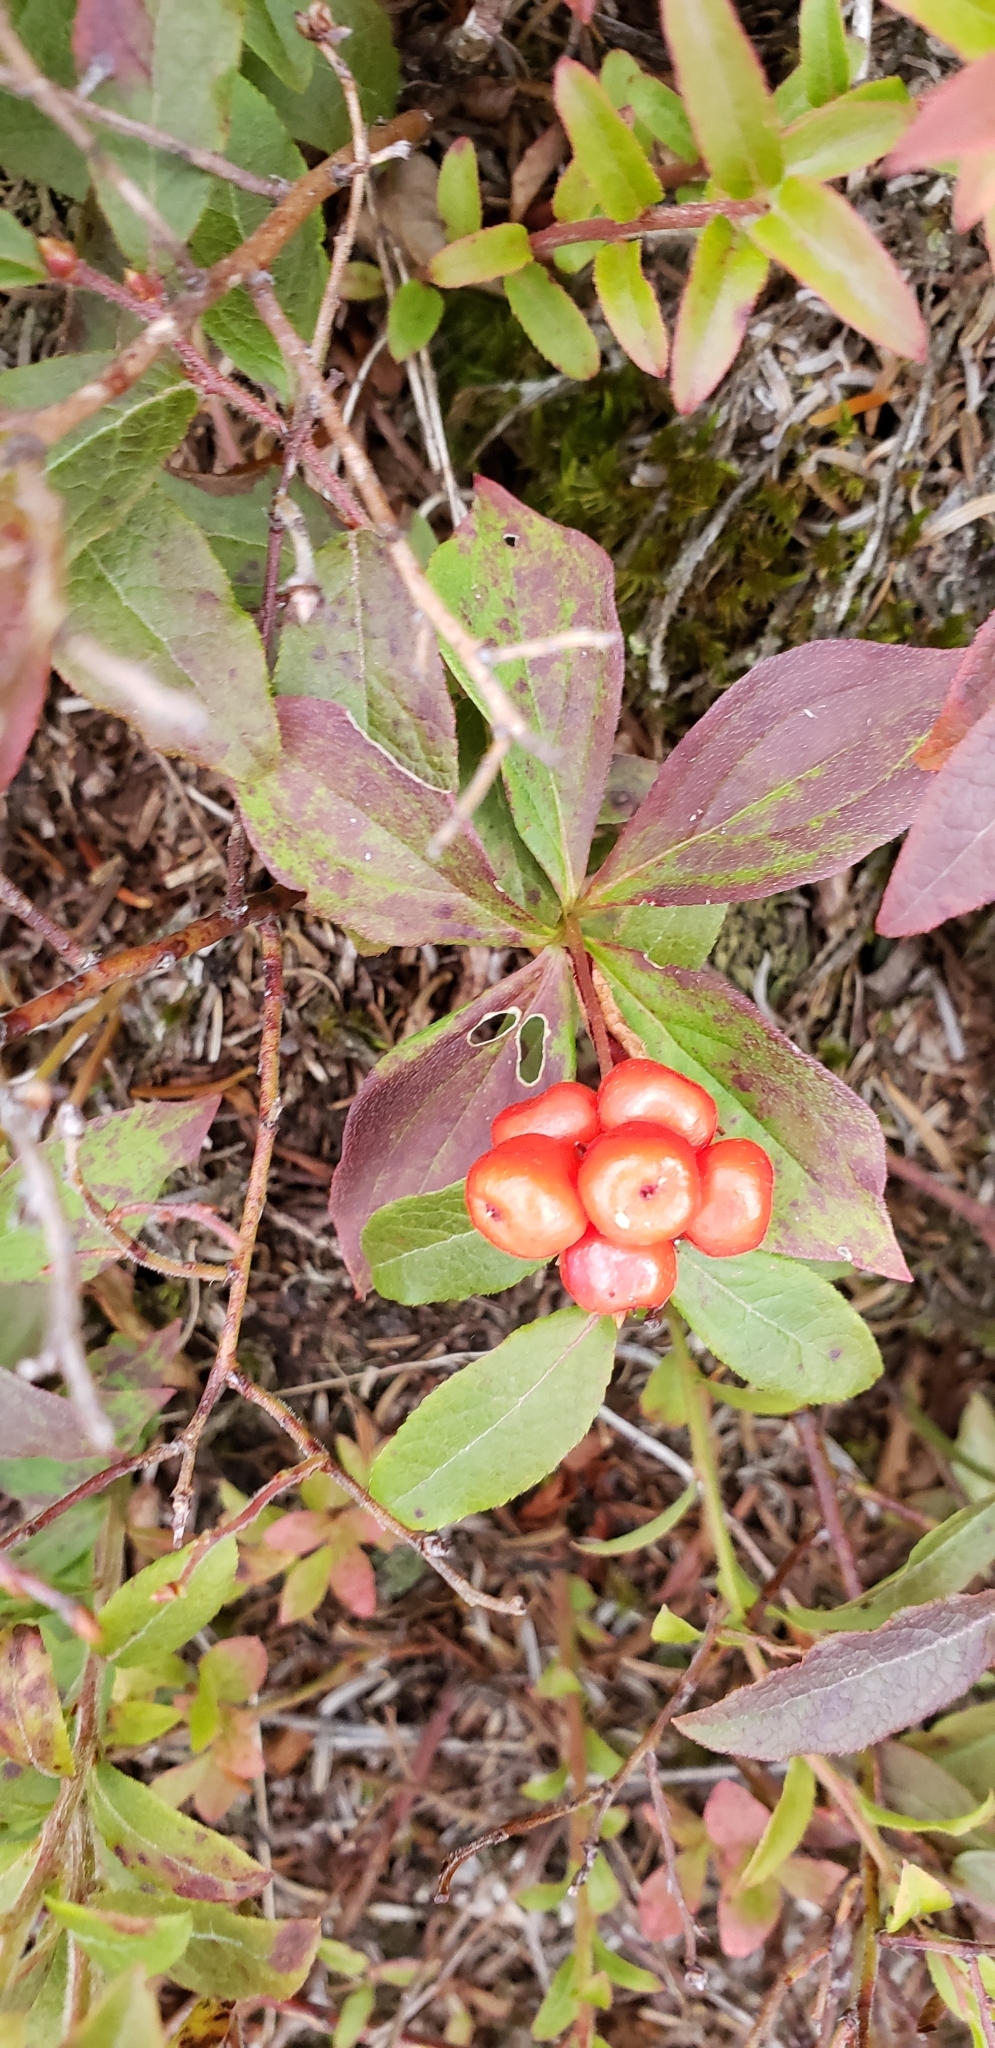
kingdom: Plantae
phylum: Tracheophyta
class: Magnoliopsida
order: Cornales
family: Cornaceae
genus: Cornus
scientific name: Cornus canadensis
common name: Creeping dogwood
